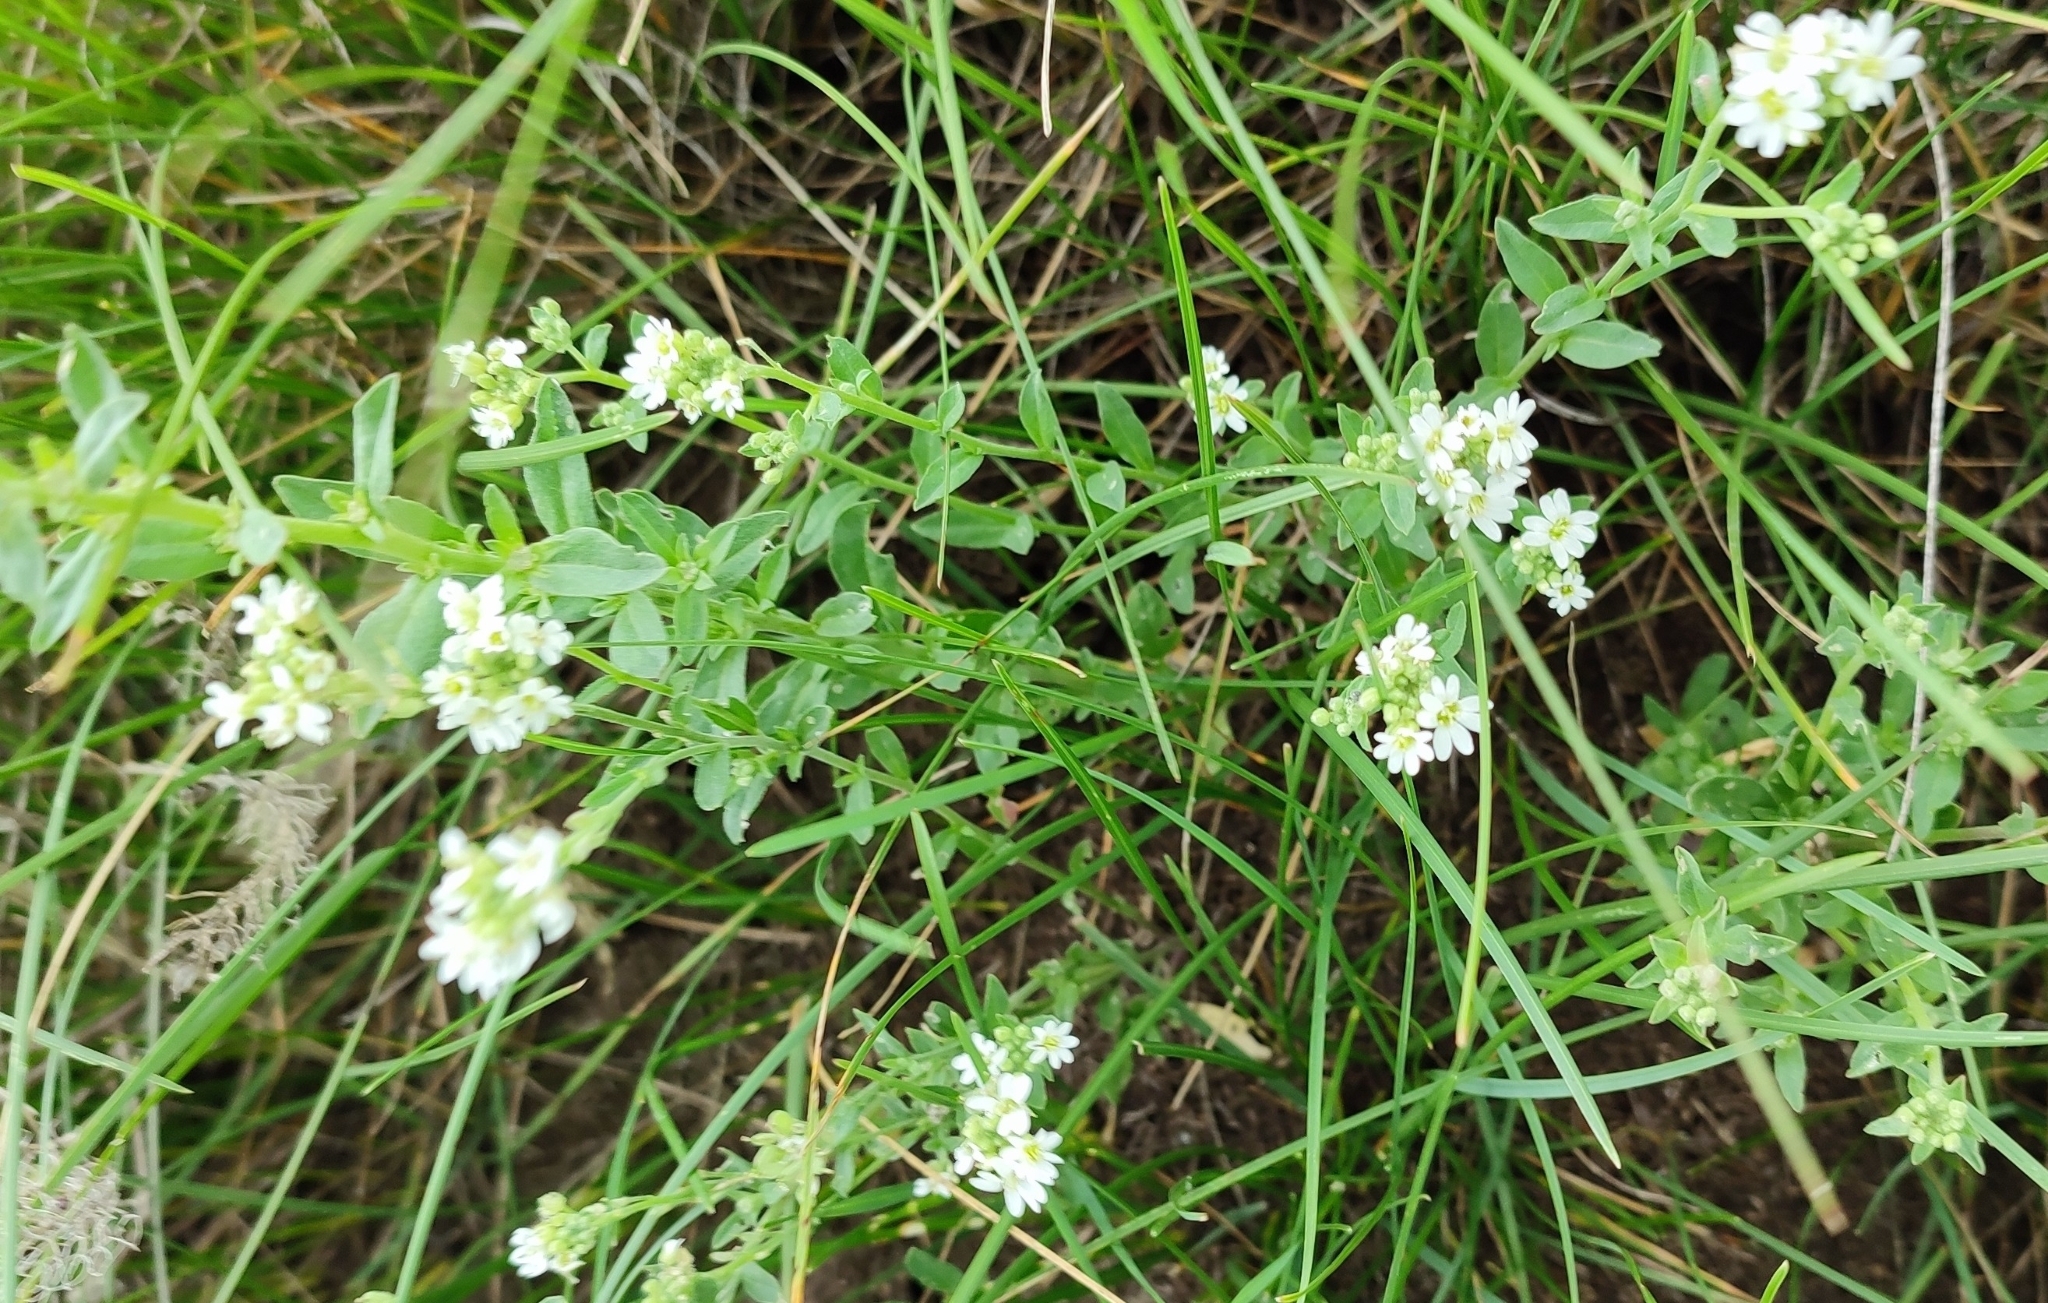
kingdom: Plantae
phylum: Tracheophyta
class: Magnoliopsida
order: Brassicales
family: Brassicaceae
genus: Berteroa
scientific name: Berteroa incana
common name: Hoary alison
